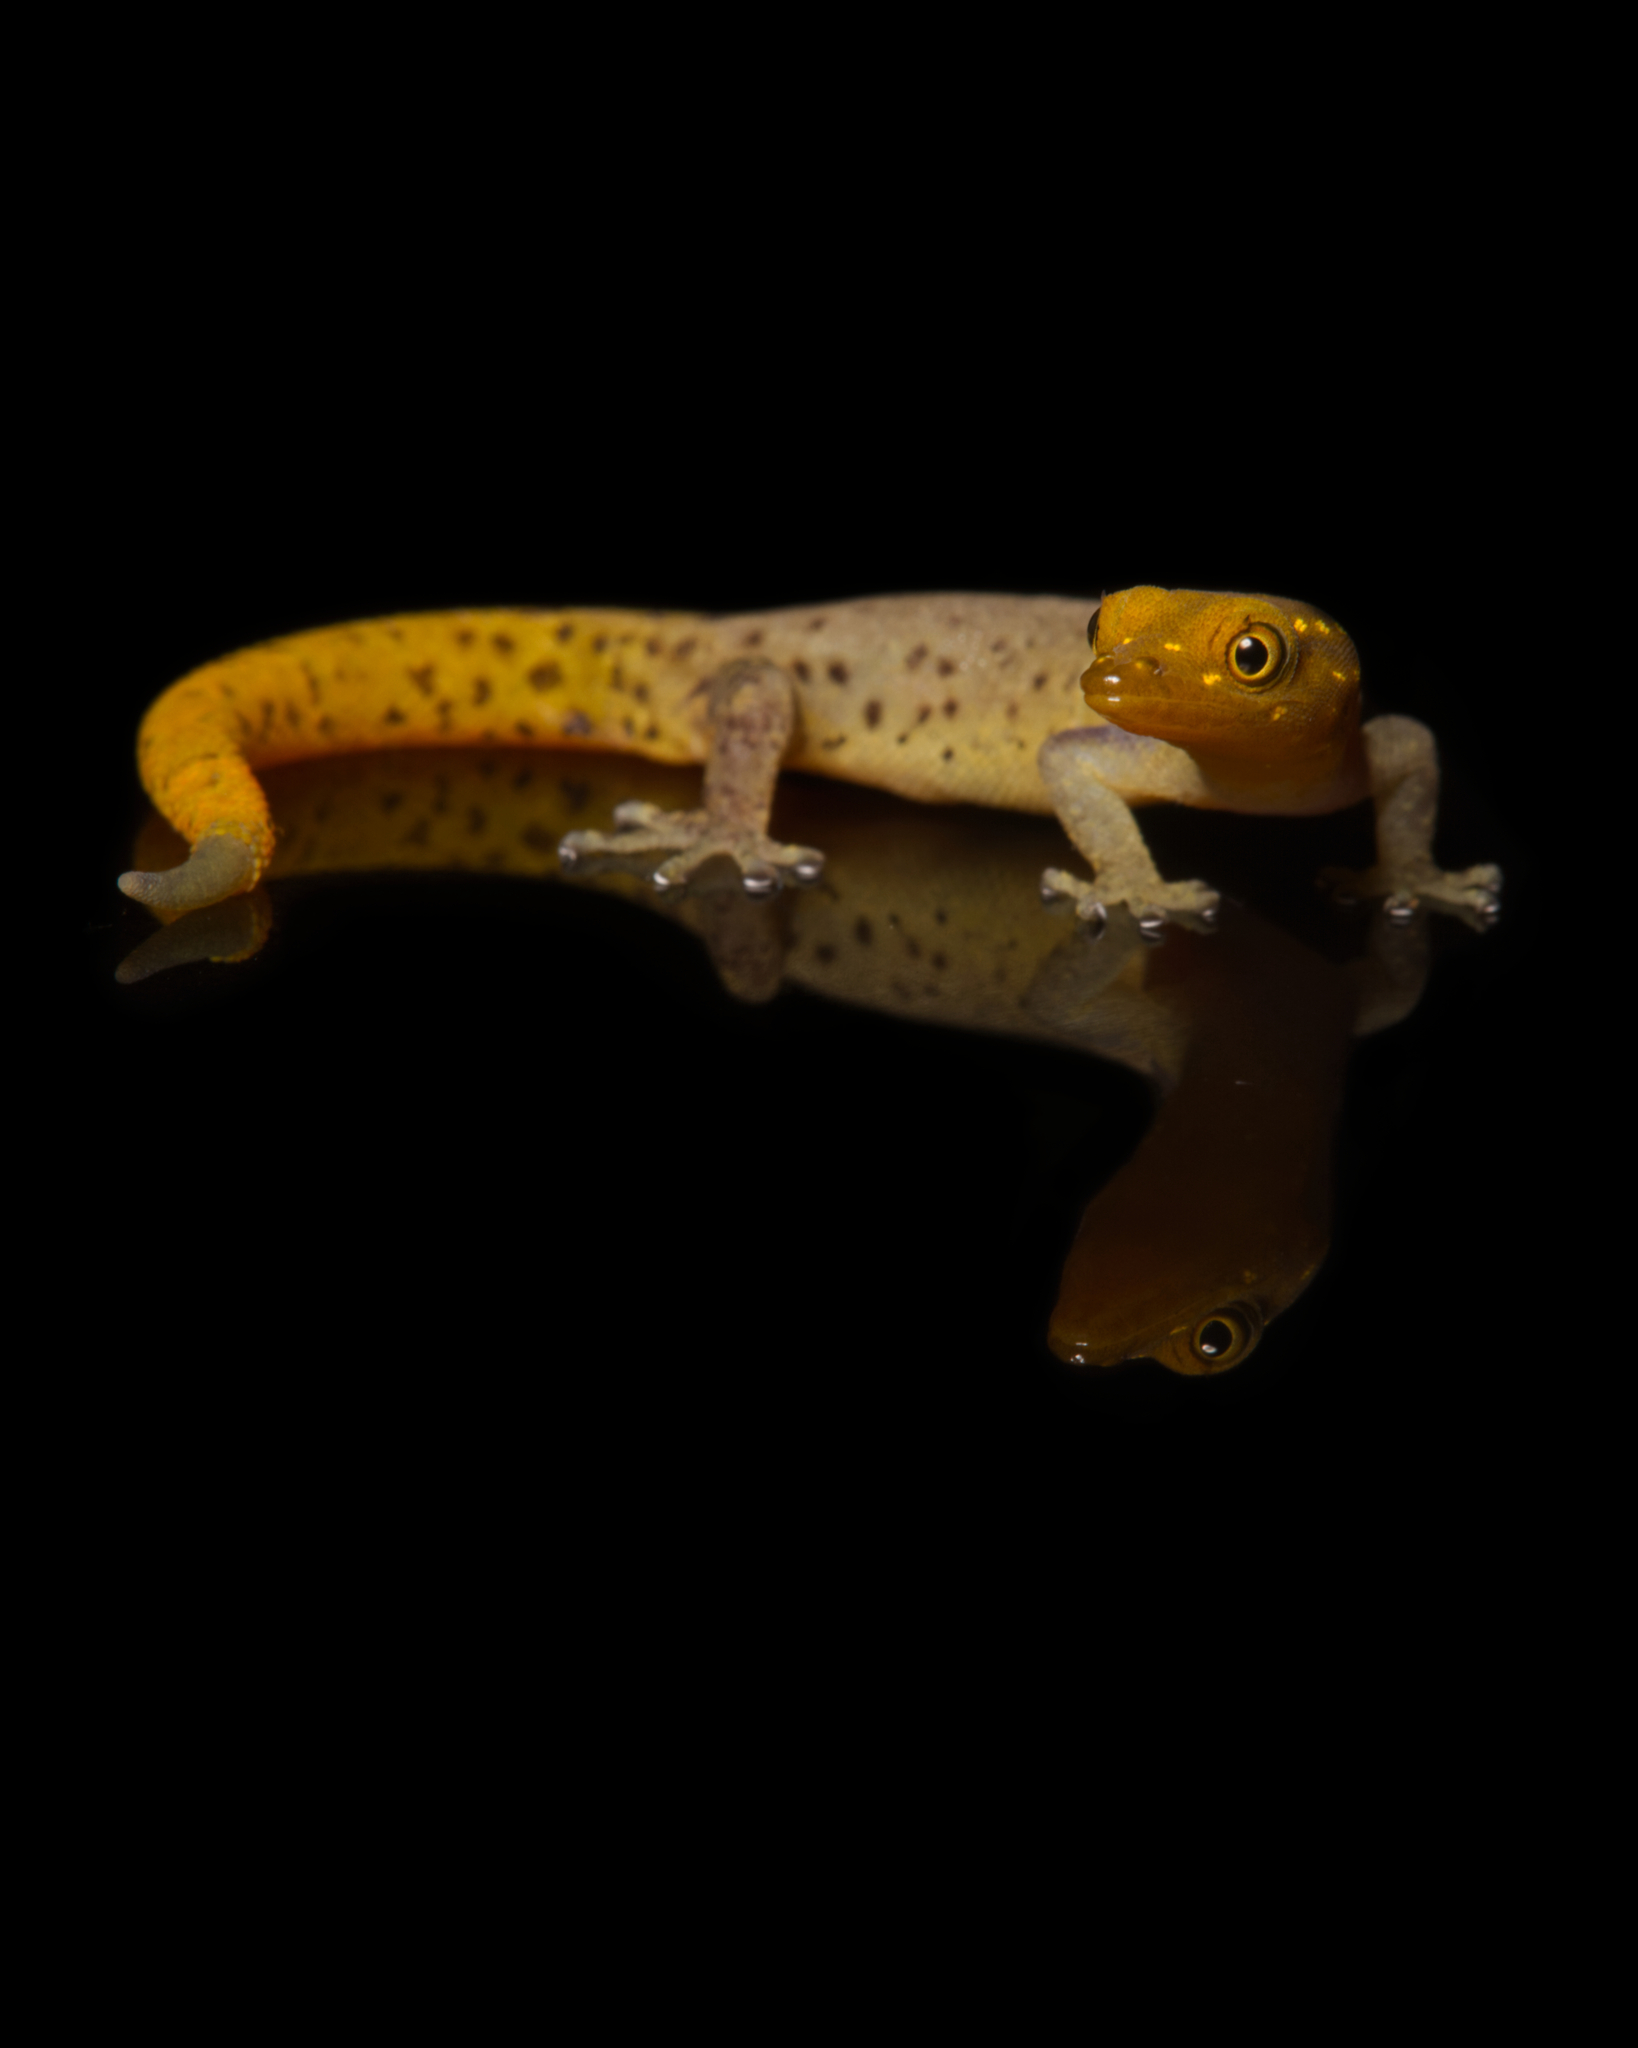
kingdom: Animalia
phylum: Chordata
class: Squamata
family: Sphaerodactylidae
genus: Sphaerodactylus
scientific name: Sphaerodactylus lineolatus
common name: Panama least gecko
